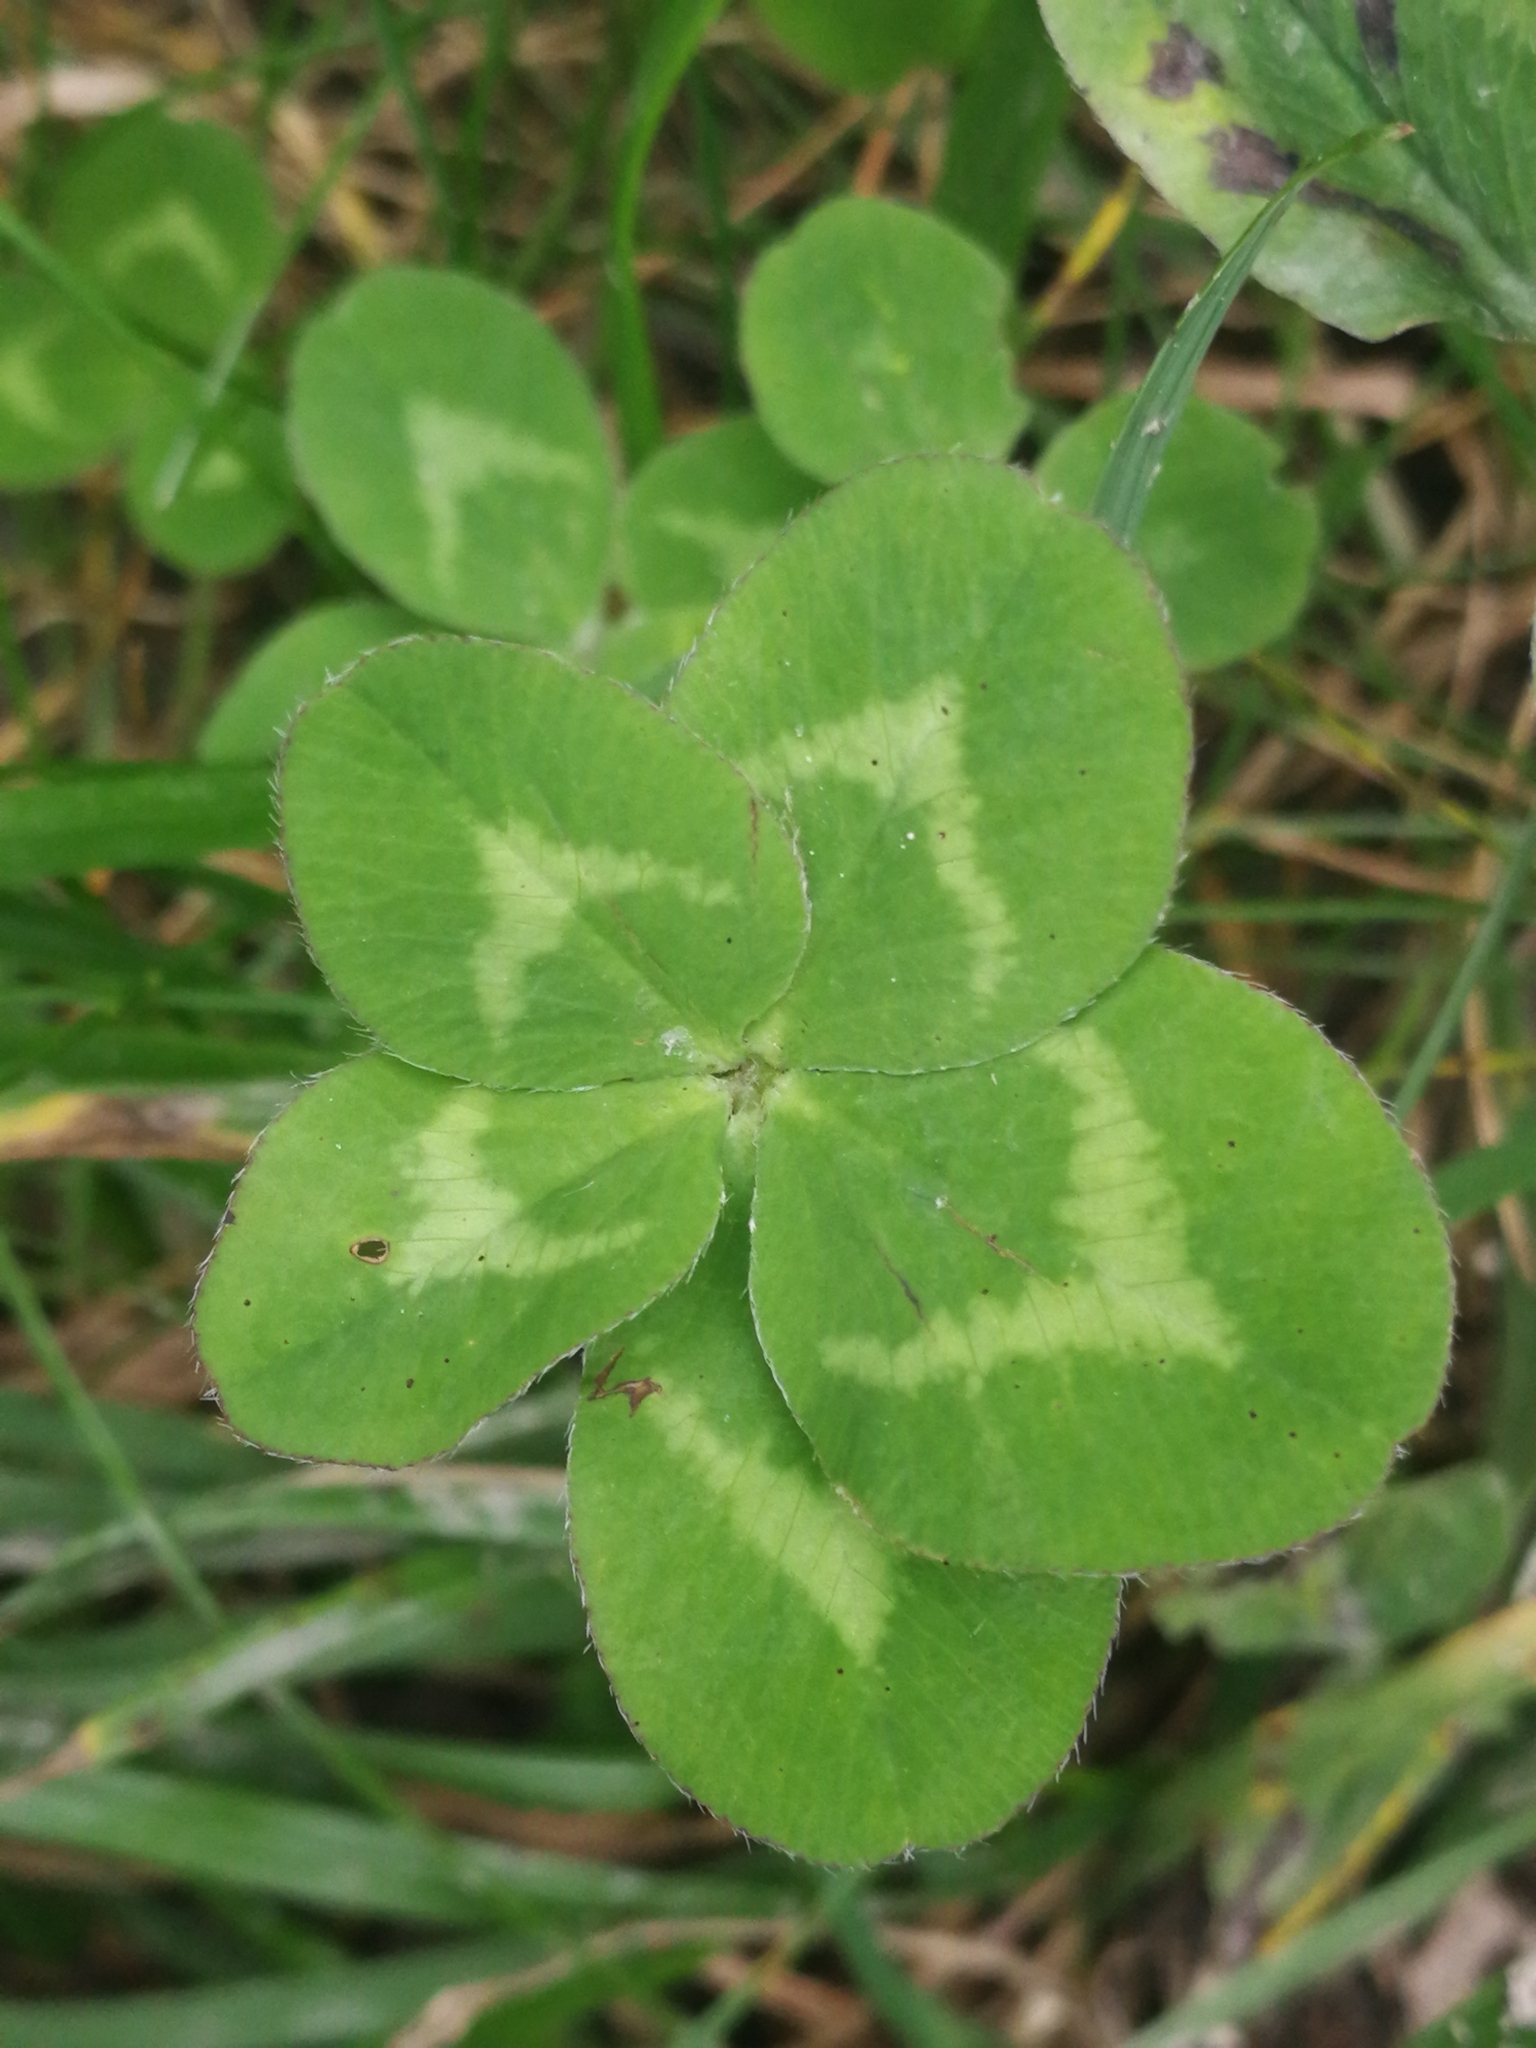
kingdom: Plantae
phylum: Tracheophyta
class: Magnoliopsida
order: Fabales
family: Fabaceae
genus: Trifolium
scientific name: Trifolium pratense
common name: Red clover
